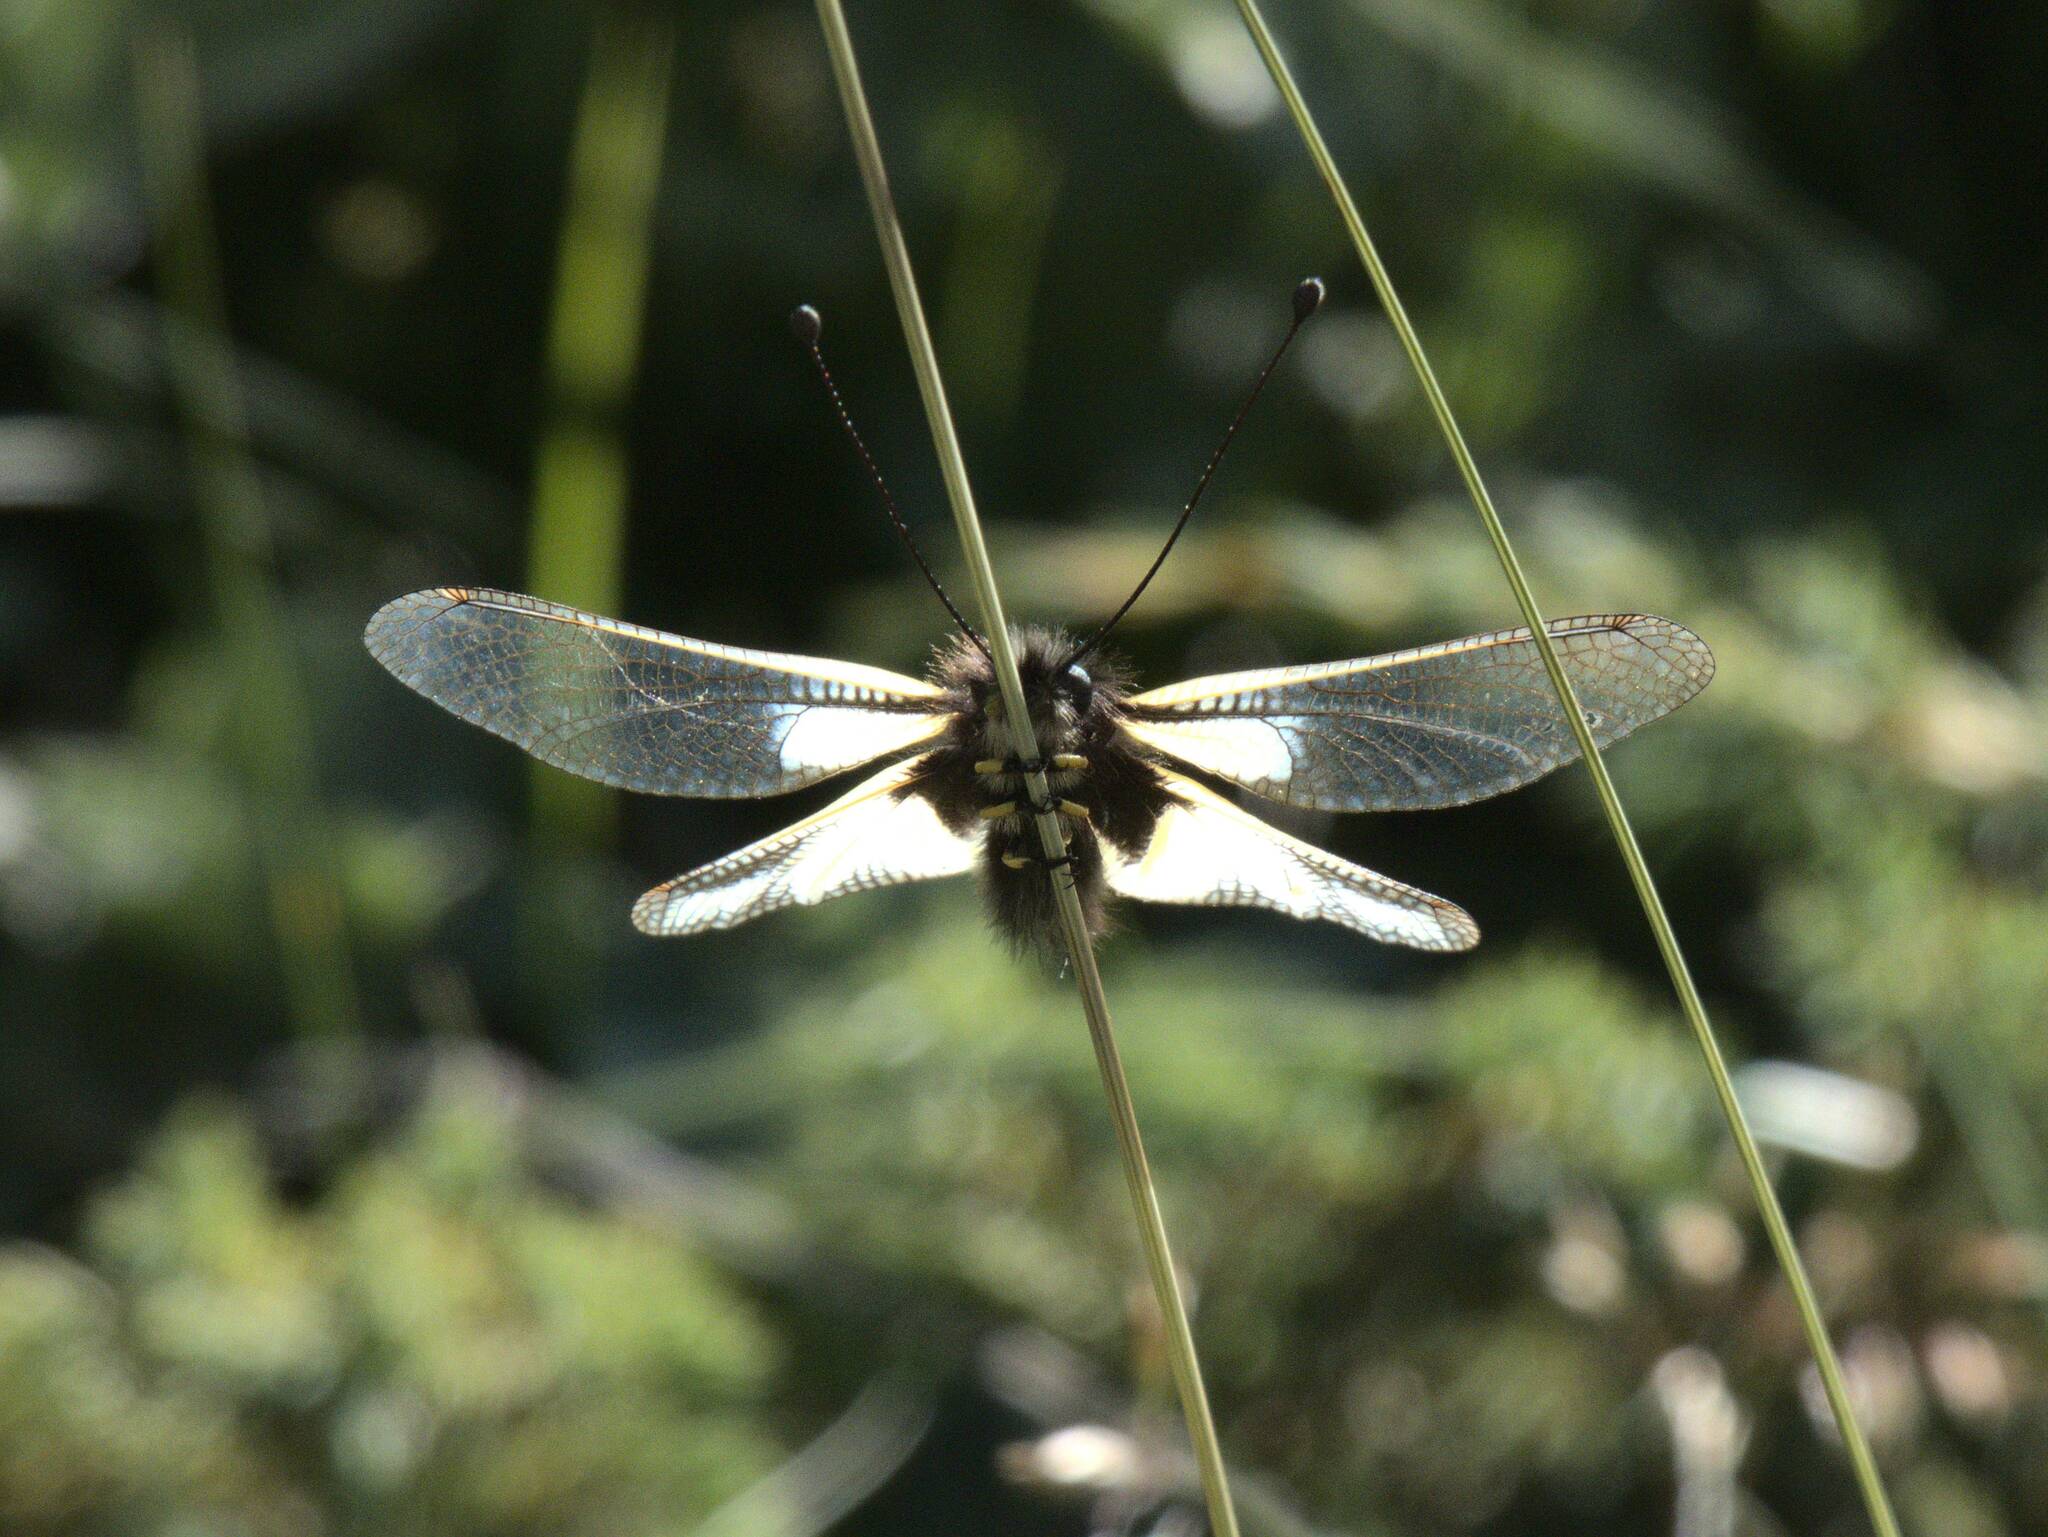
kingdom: Animalia
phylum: Arthropoda
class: Insecta
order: Neuroptera
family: Ascalaphidae
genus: Libelloides
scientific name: Libelloides coccajus
